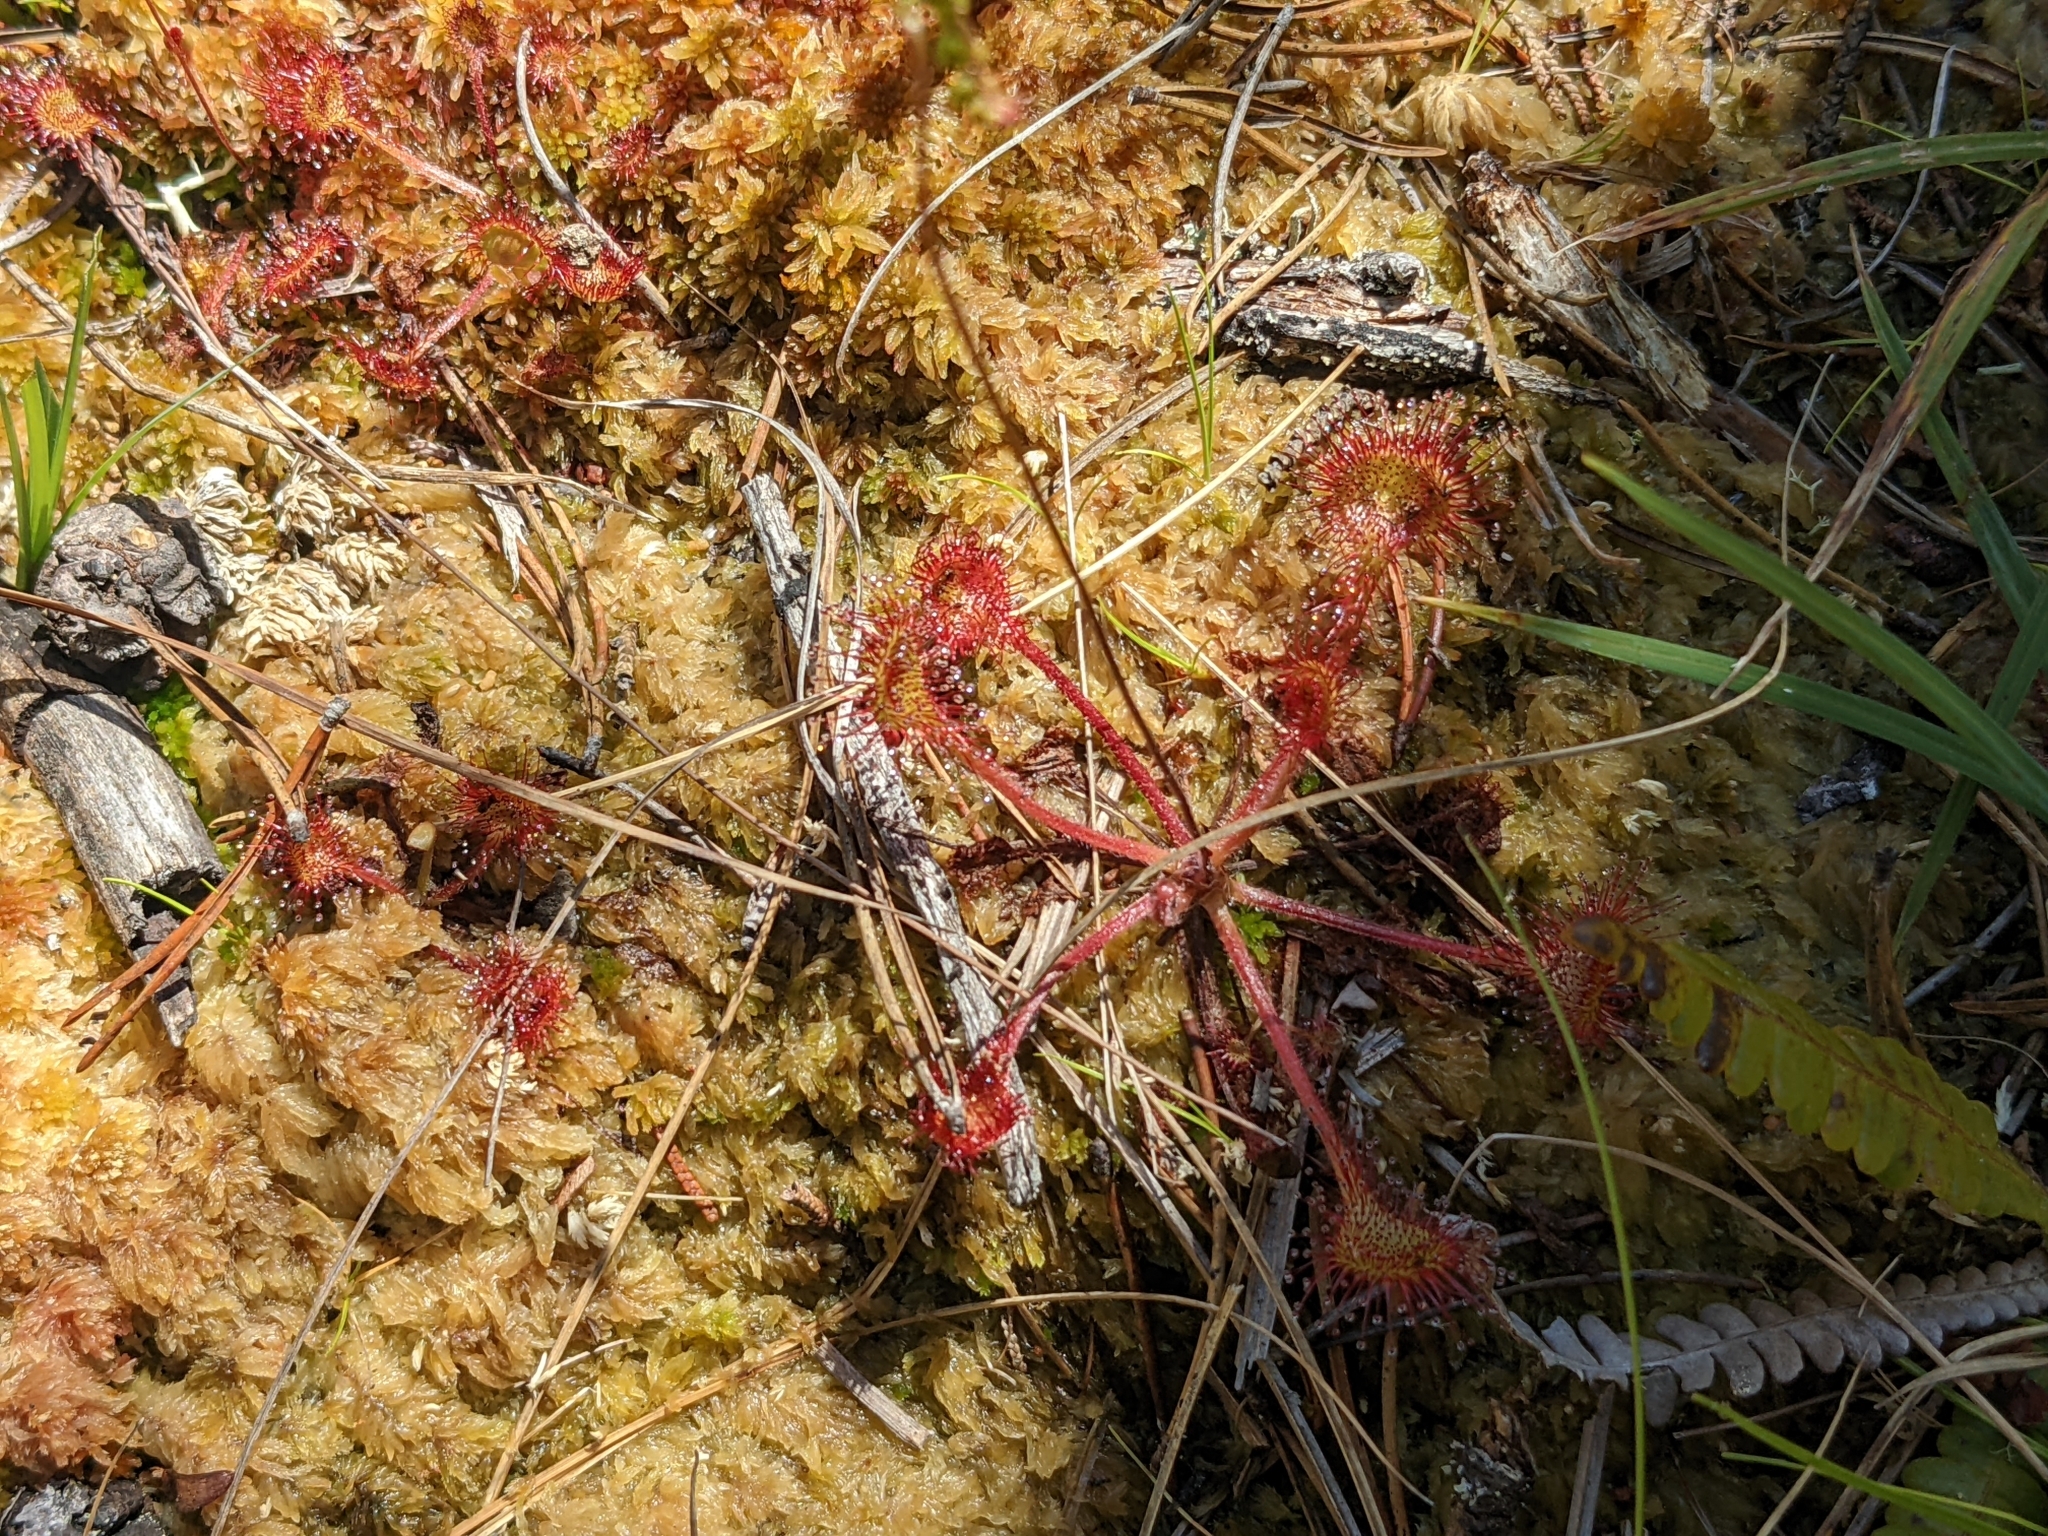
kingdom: Plantae
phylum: Tracheophyta
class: Magnoliopsida
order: Caryophyllales
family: Droseraceae
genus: Drosera
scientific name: Drosera rotundifolia
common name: Round-leaved sundew
